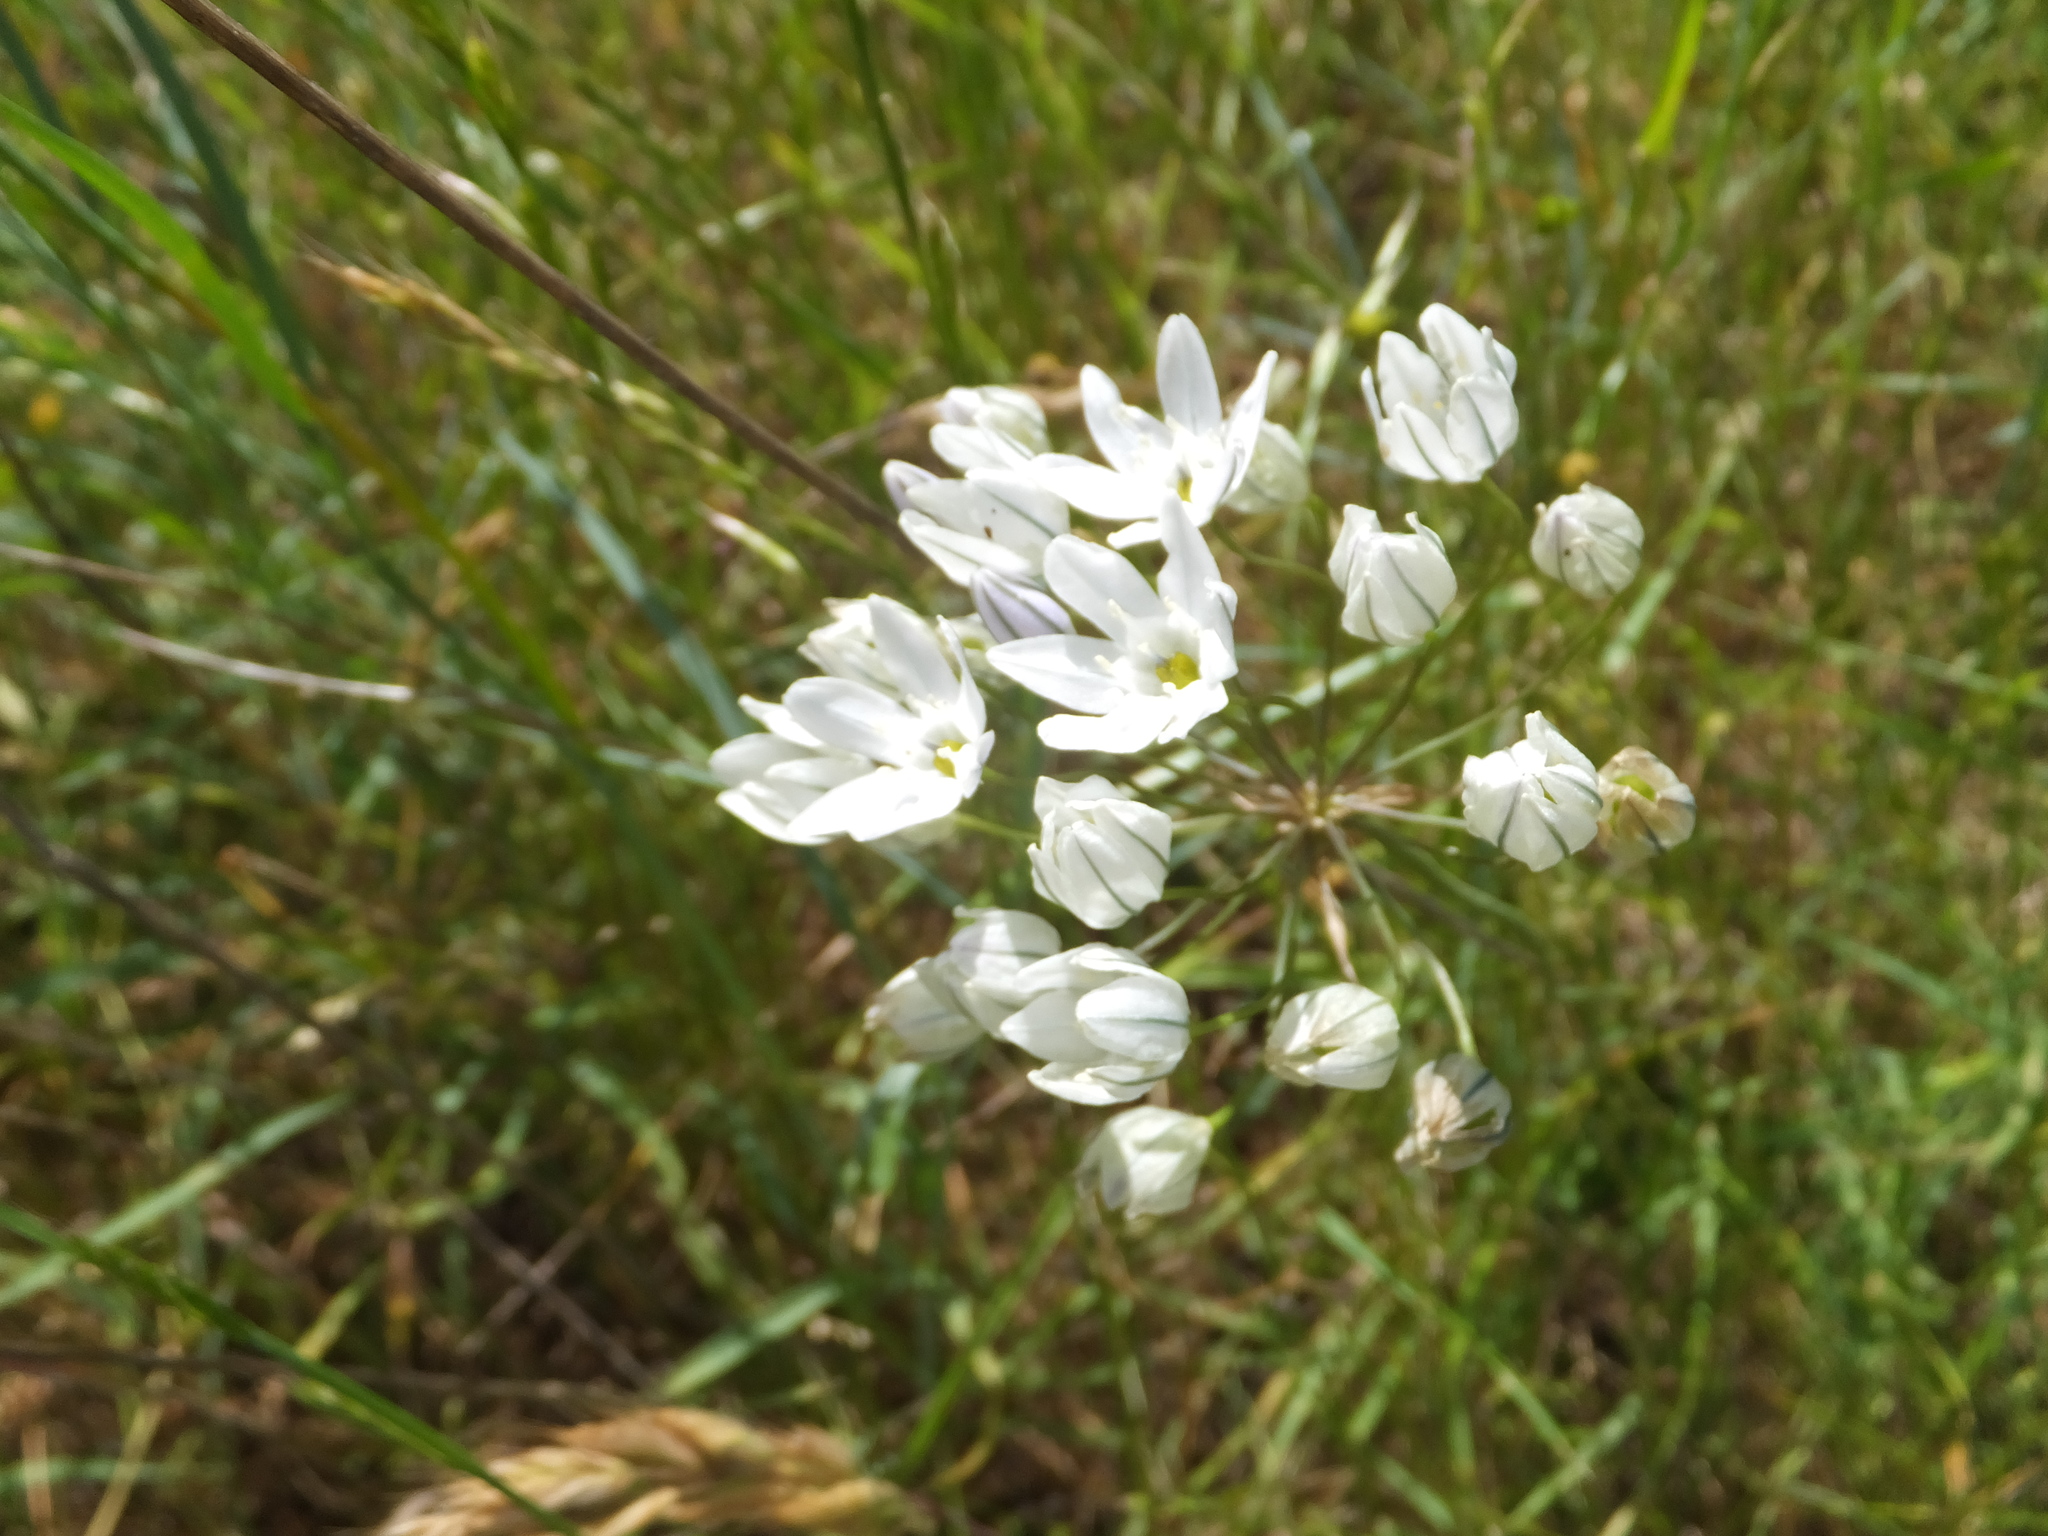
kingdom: Plantae
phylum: Tracheophyta
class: Liliopsida
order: Asparagales
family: Asparagaceae
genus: Triteleia
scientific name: Triteleia hyacinthina
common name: White brodiaea
